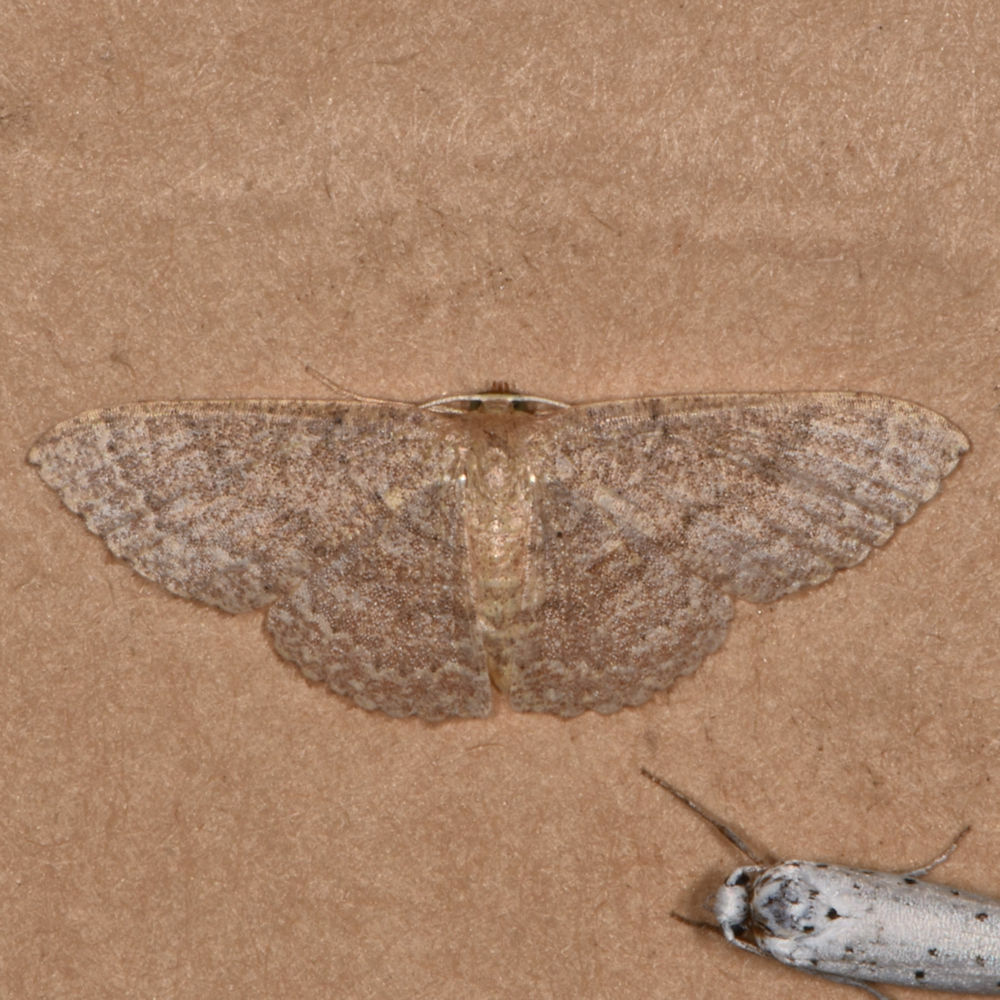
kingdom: Animalia
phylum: Arthropoda
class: Insecta
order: Lepidoptera
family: Geometridae
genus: Pleuroprucha
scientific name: Pleuroprucha insulsaria
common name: Common tan wave
